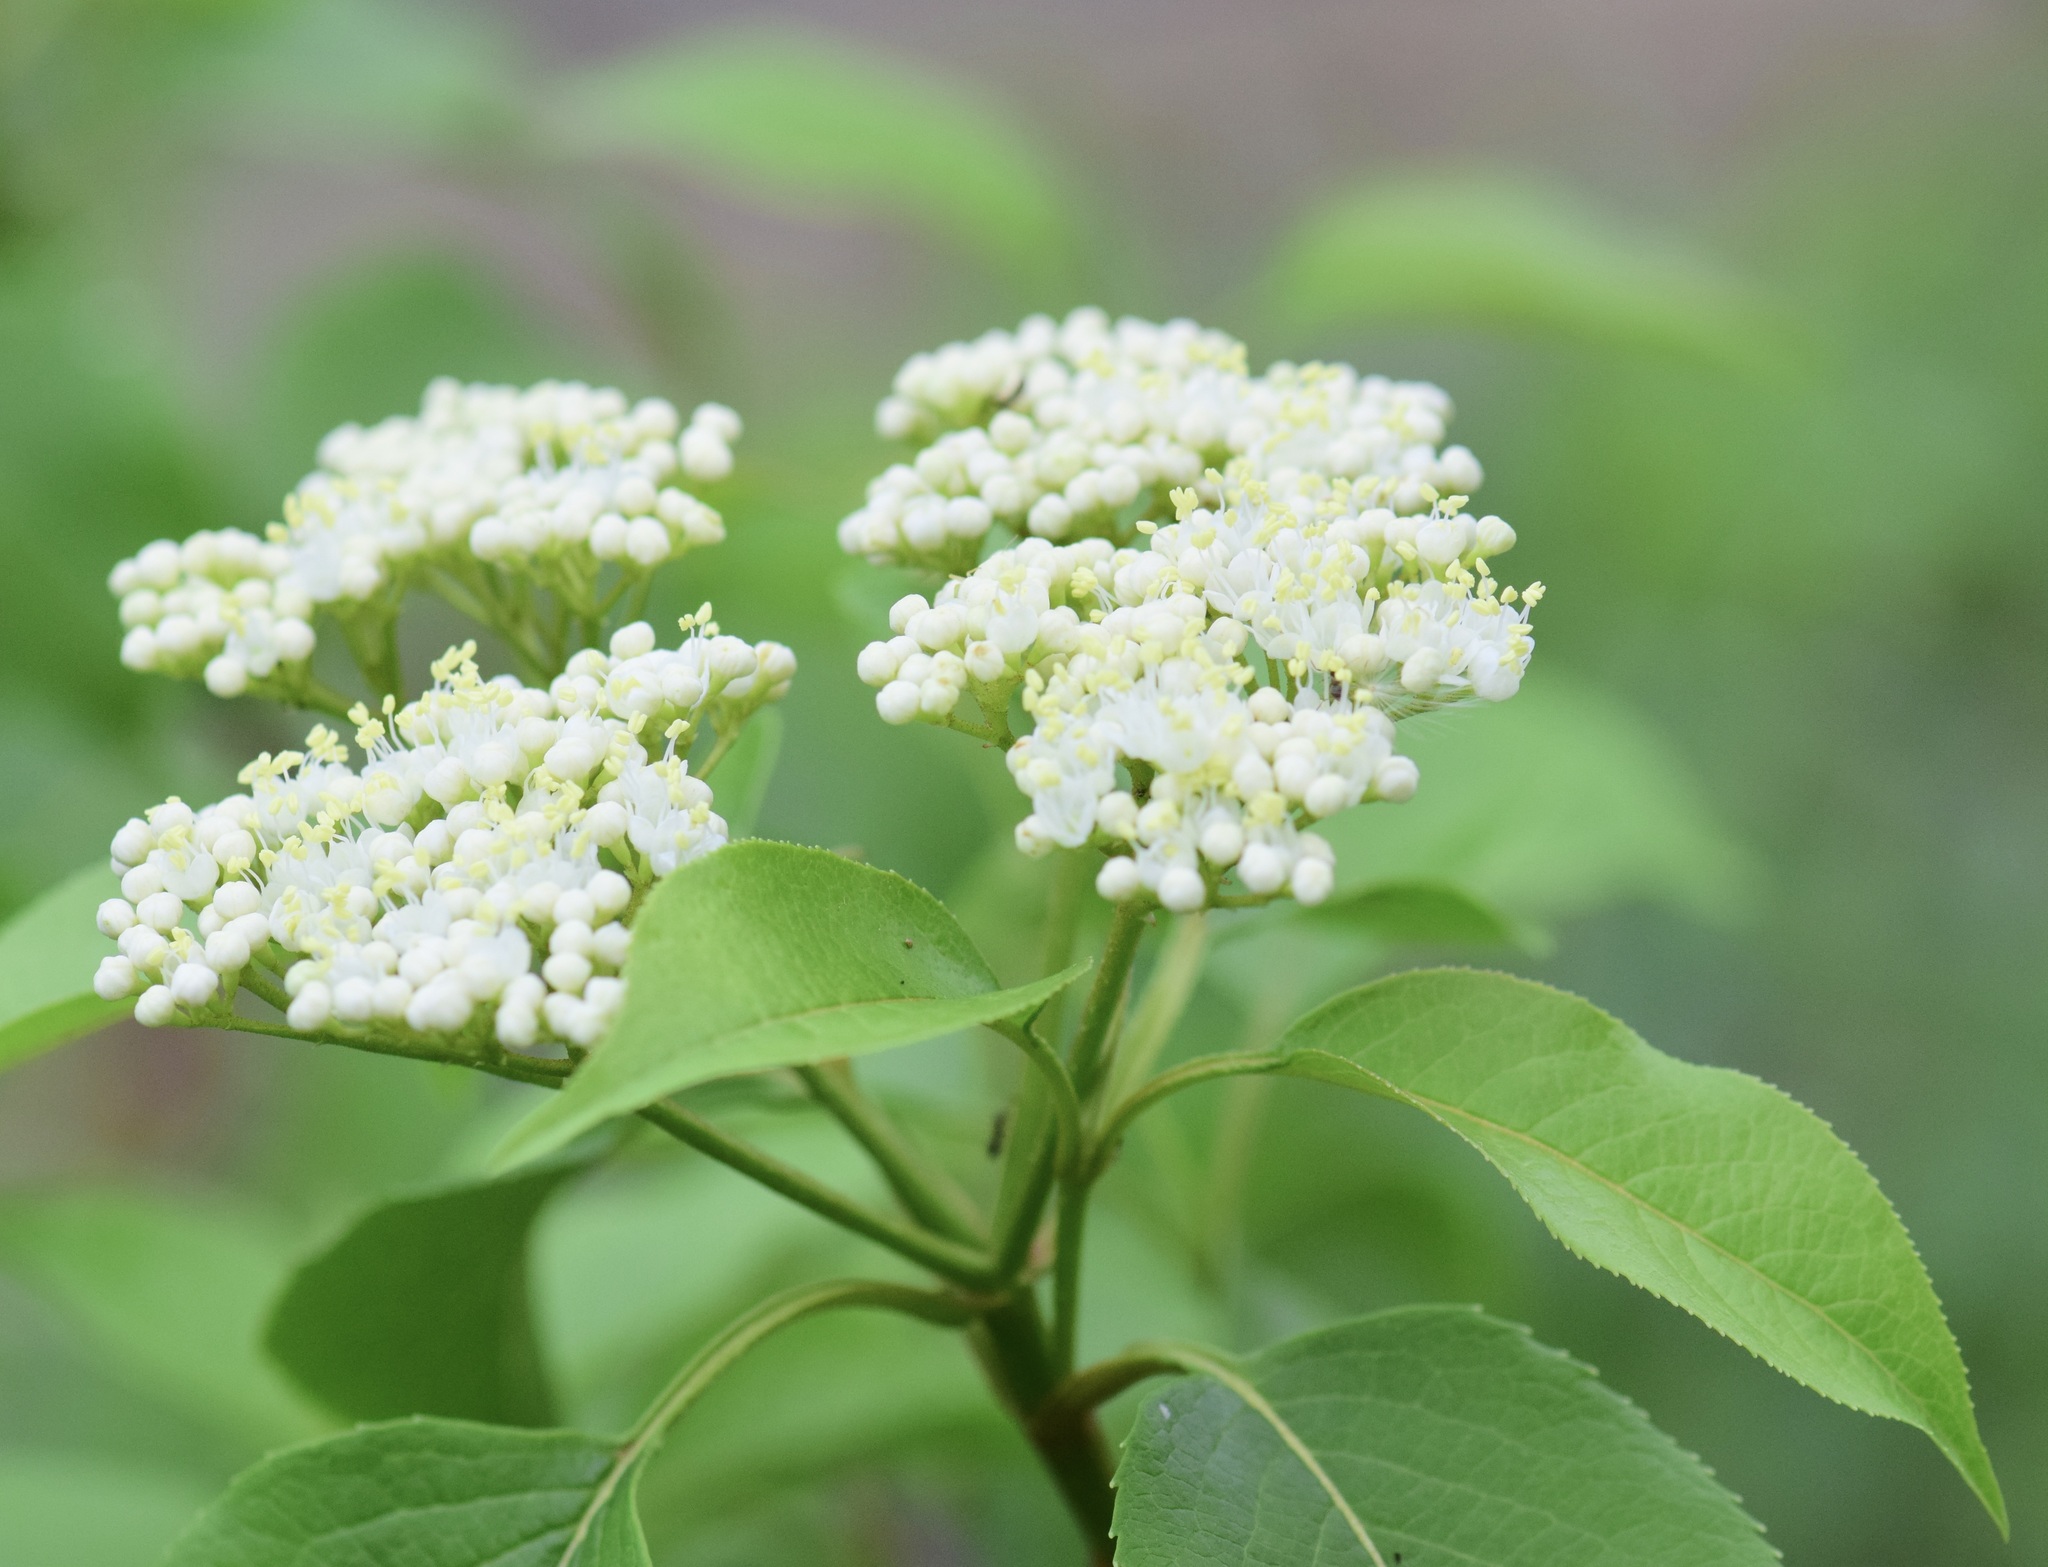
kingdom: Plantae
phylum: Tracheophyta
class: Magnoliopsida
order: Dipsacales
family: Viburnaceae
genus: Viburnum
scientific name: Viburnum lentago
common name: Black haw
